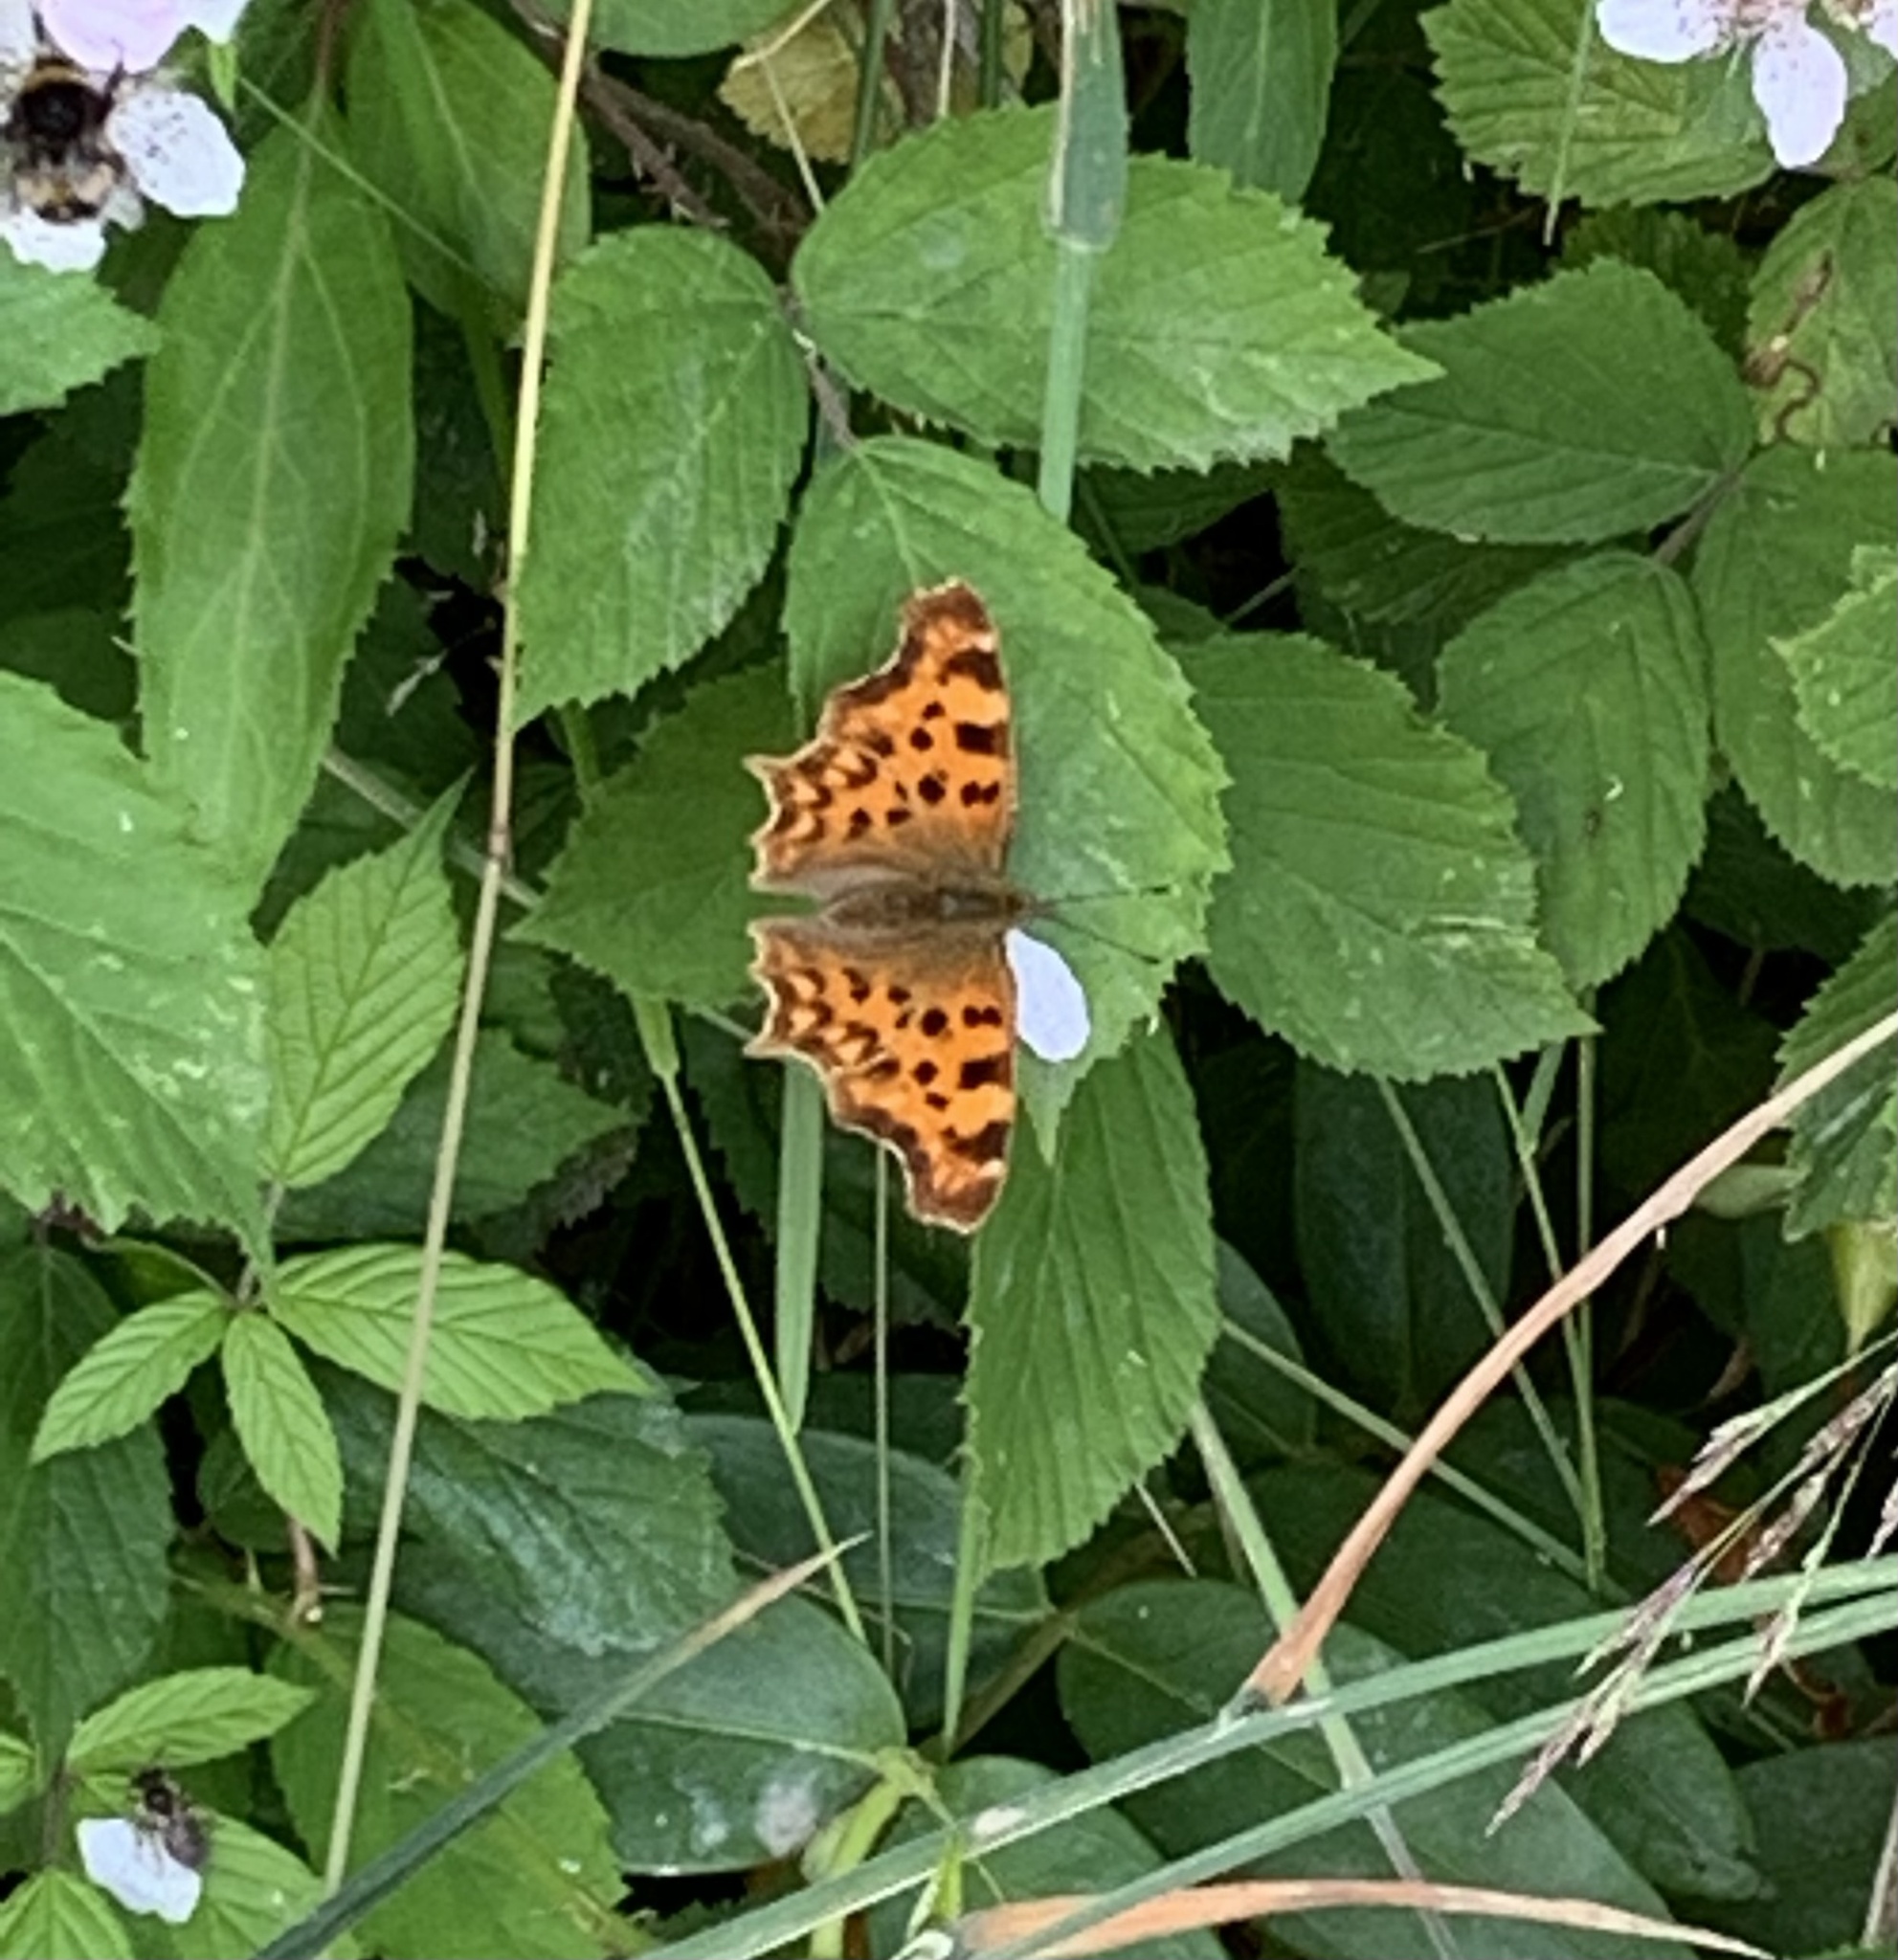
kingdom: Animalia
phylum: Arthropoda
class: Insecta
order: Lepidoptera
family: Nymphalidae
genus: Polygonia
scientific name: Polygonia c-album
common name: Comma
